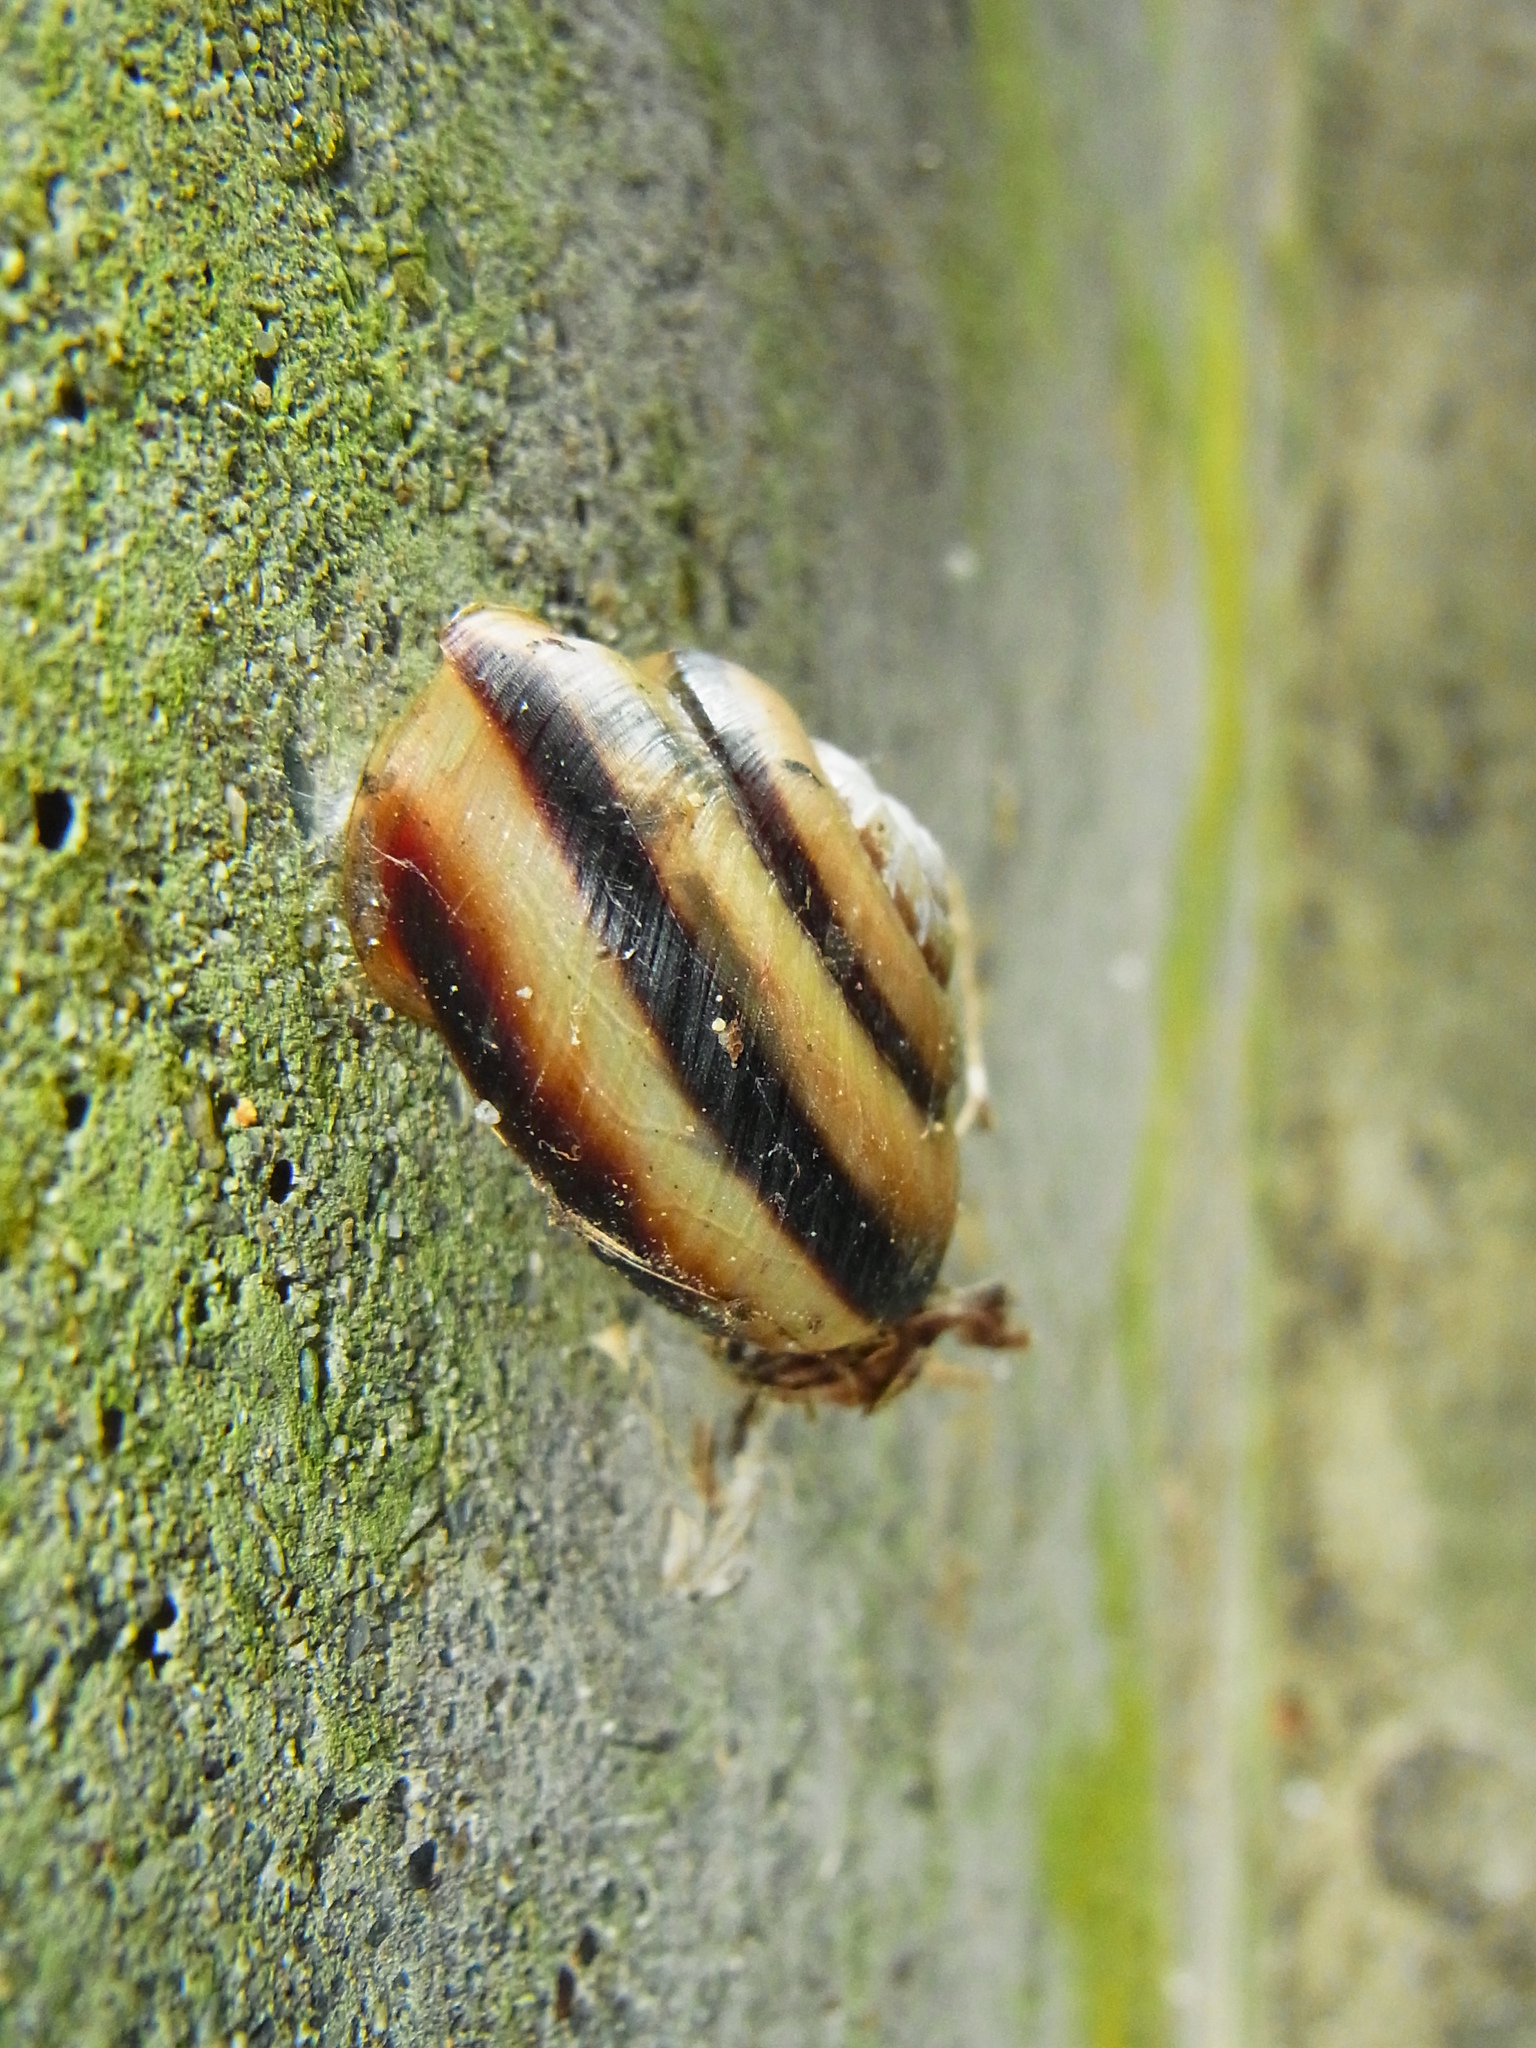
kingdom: Animalia
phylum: Mollusca
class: Gastropoda
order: Stylommatophora
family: Camaenidae
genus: Euhadra
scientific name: Euhadra subnimbosa
